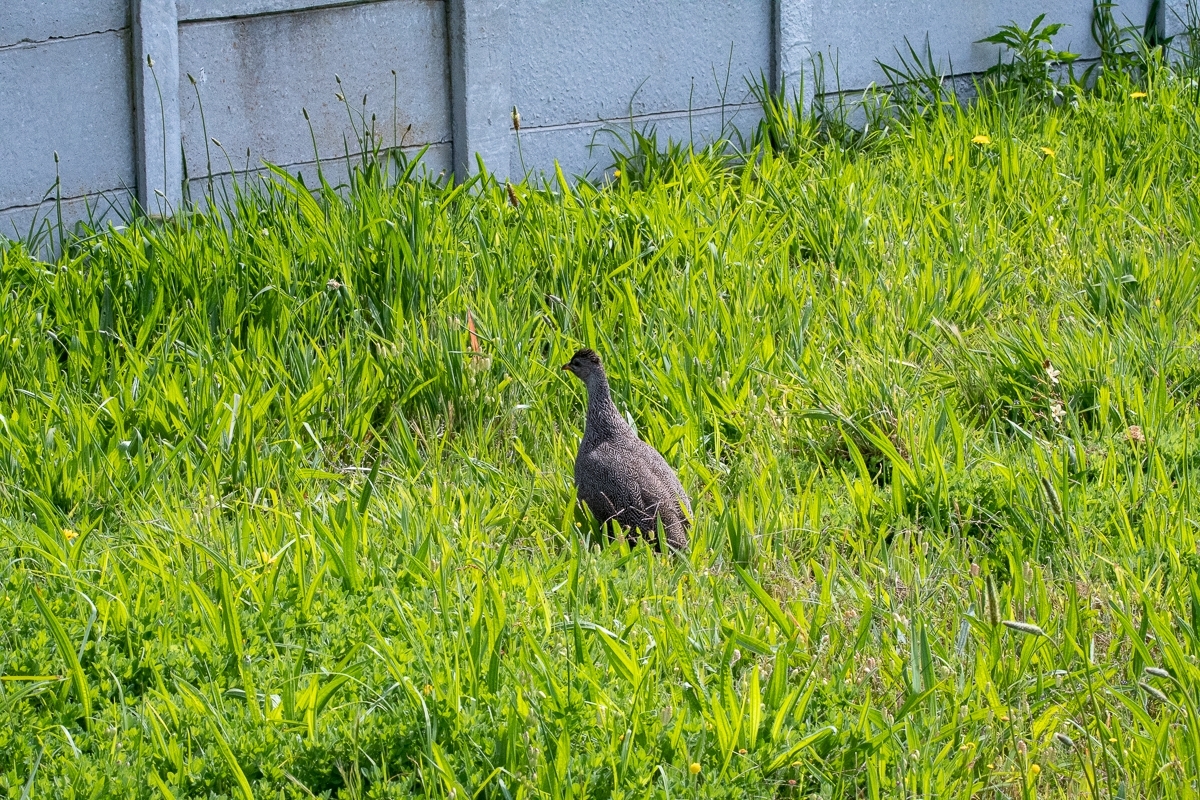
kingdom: Animalia
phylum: Chordata
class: Aves
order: Galliformes
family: Phasianidae
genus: Pternistis
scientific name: Pternistis capensis
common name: Cape spurfowl
